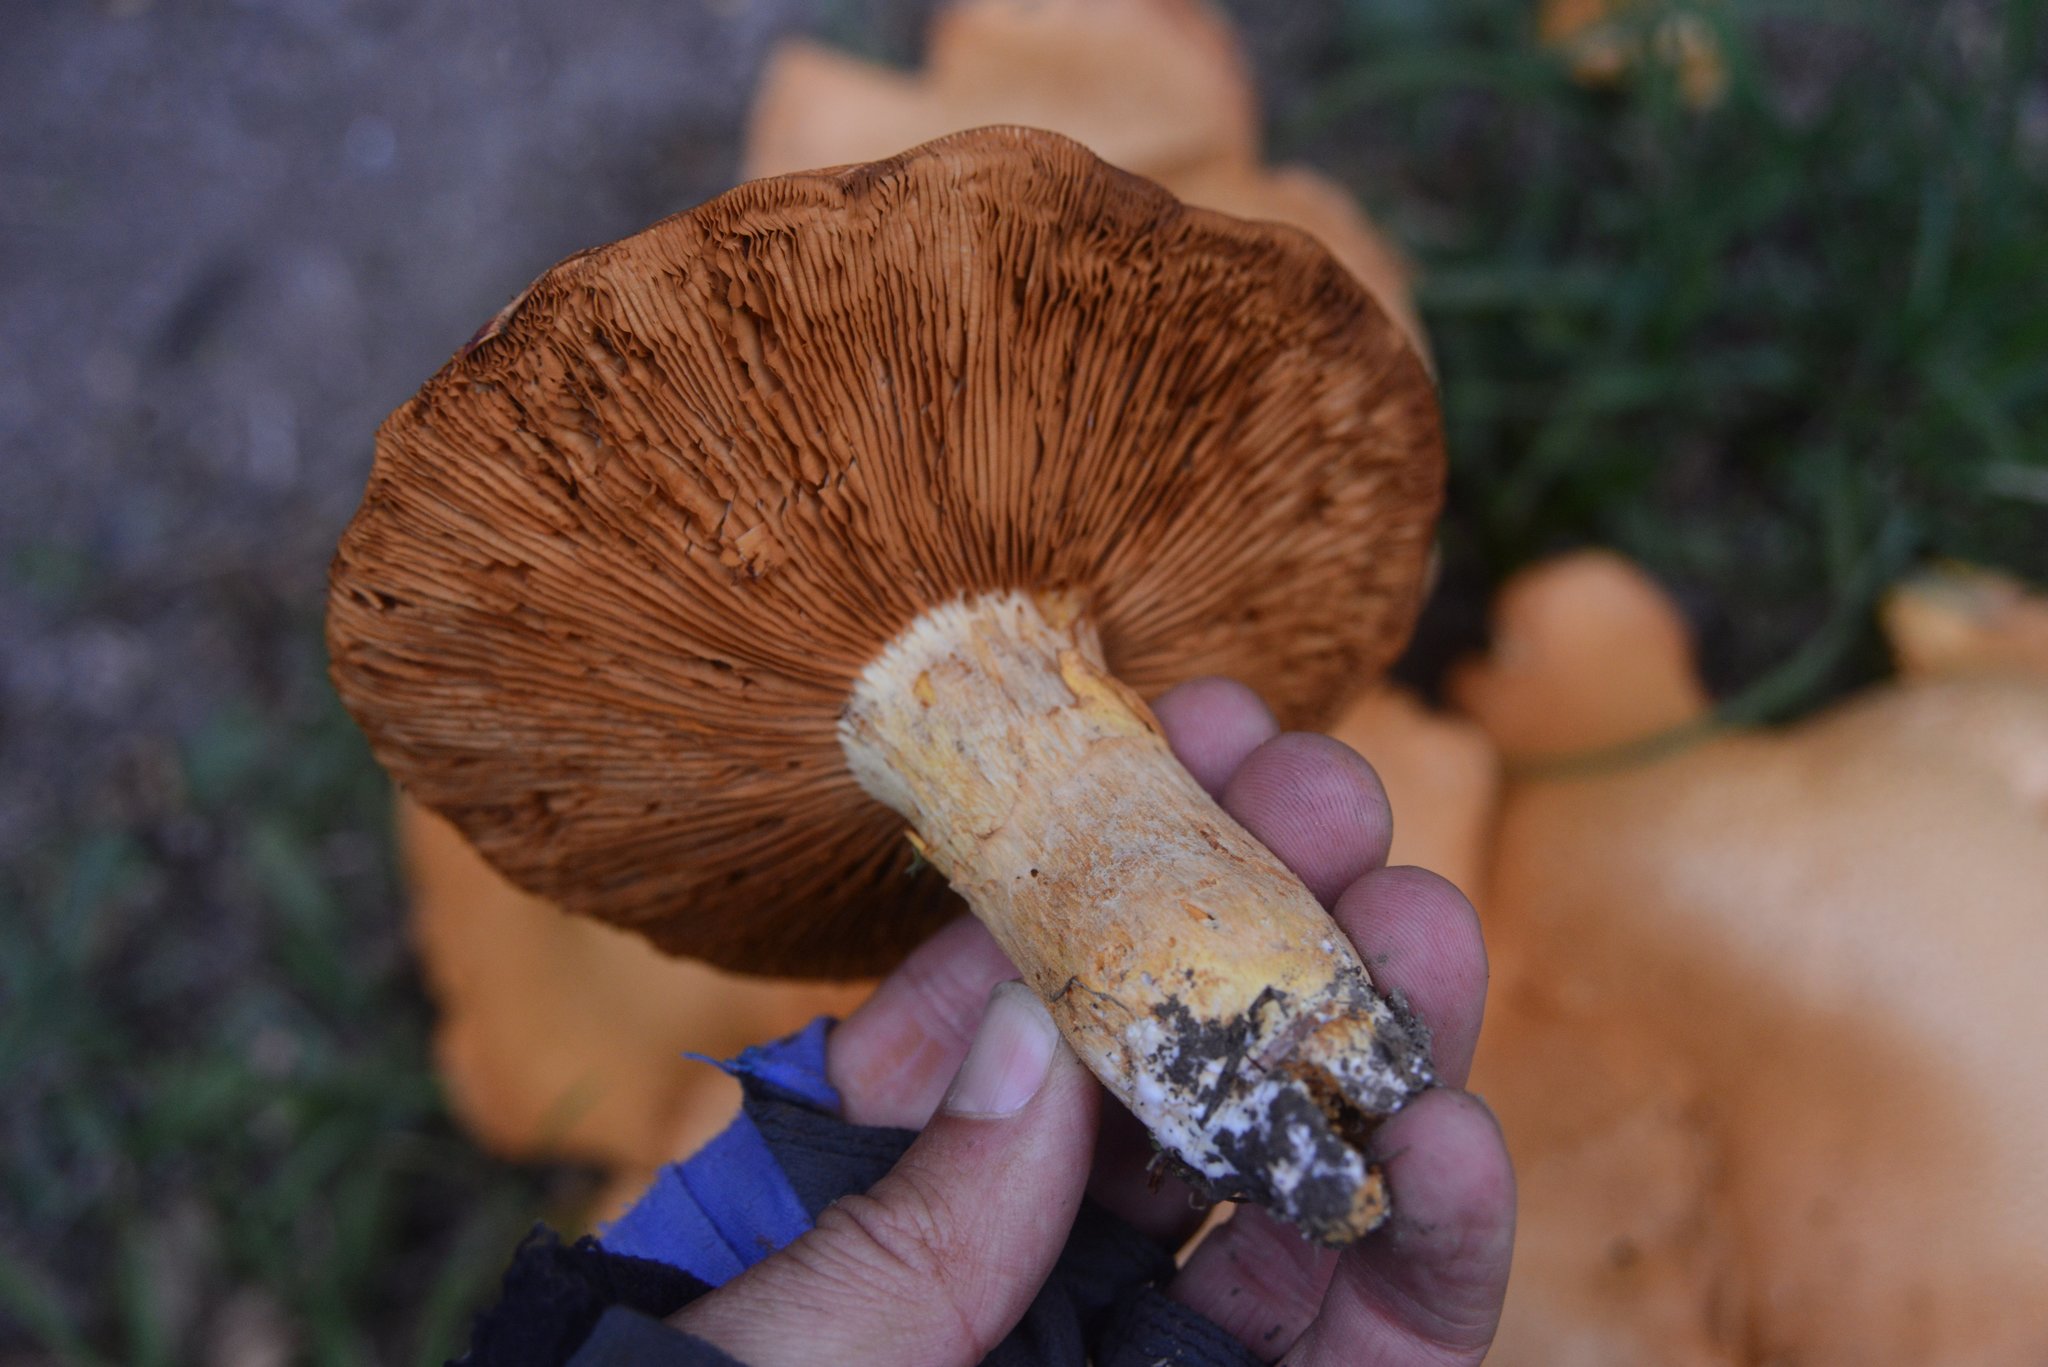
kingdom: Fungi
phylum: Basidiomycota
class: Agaricomycetes
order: Agaricales
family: Hymenogastraceae
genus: Gymnopilus
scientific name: Gymnopilus junonius
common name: Spectacular rustgill
